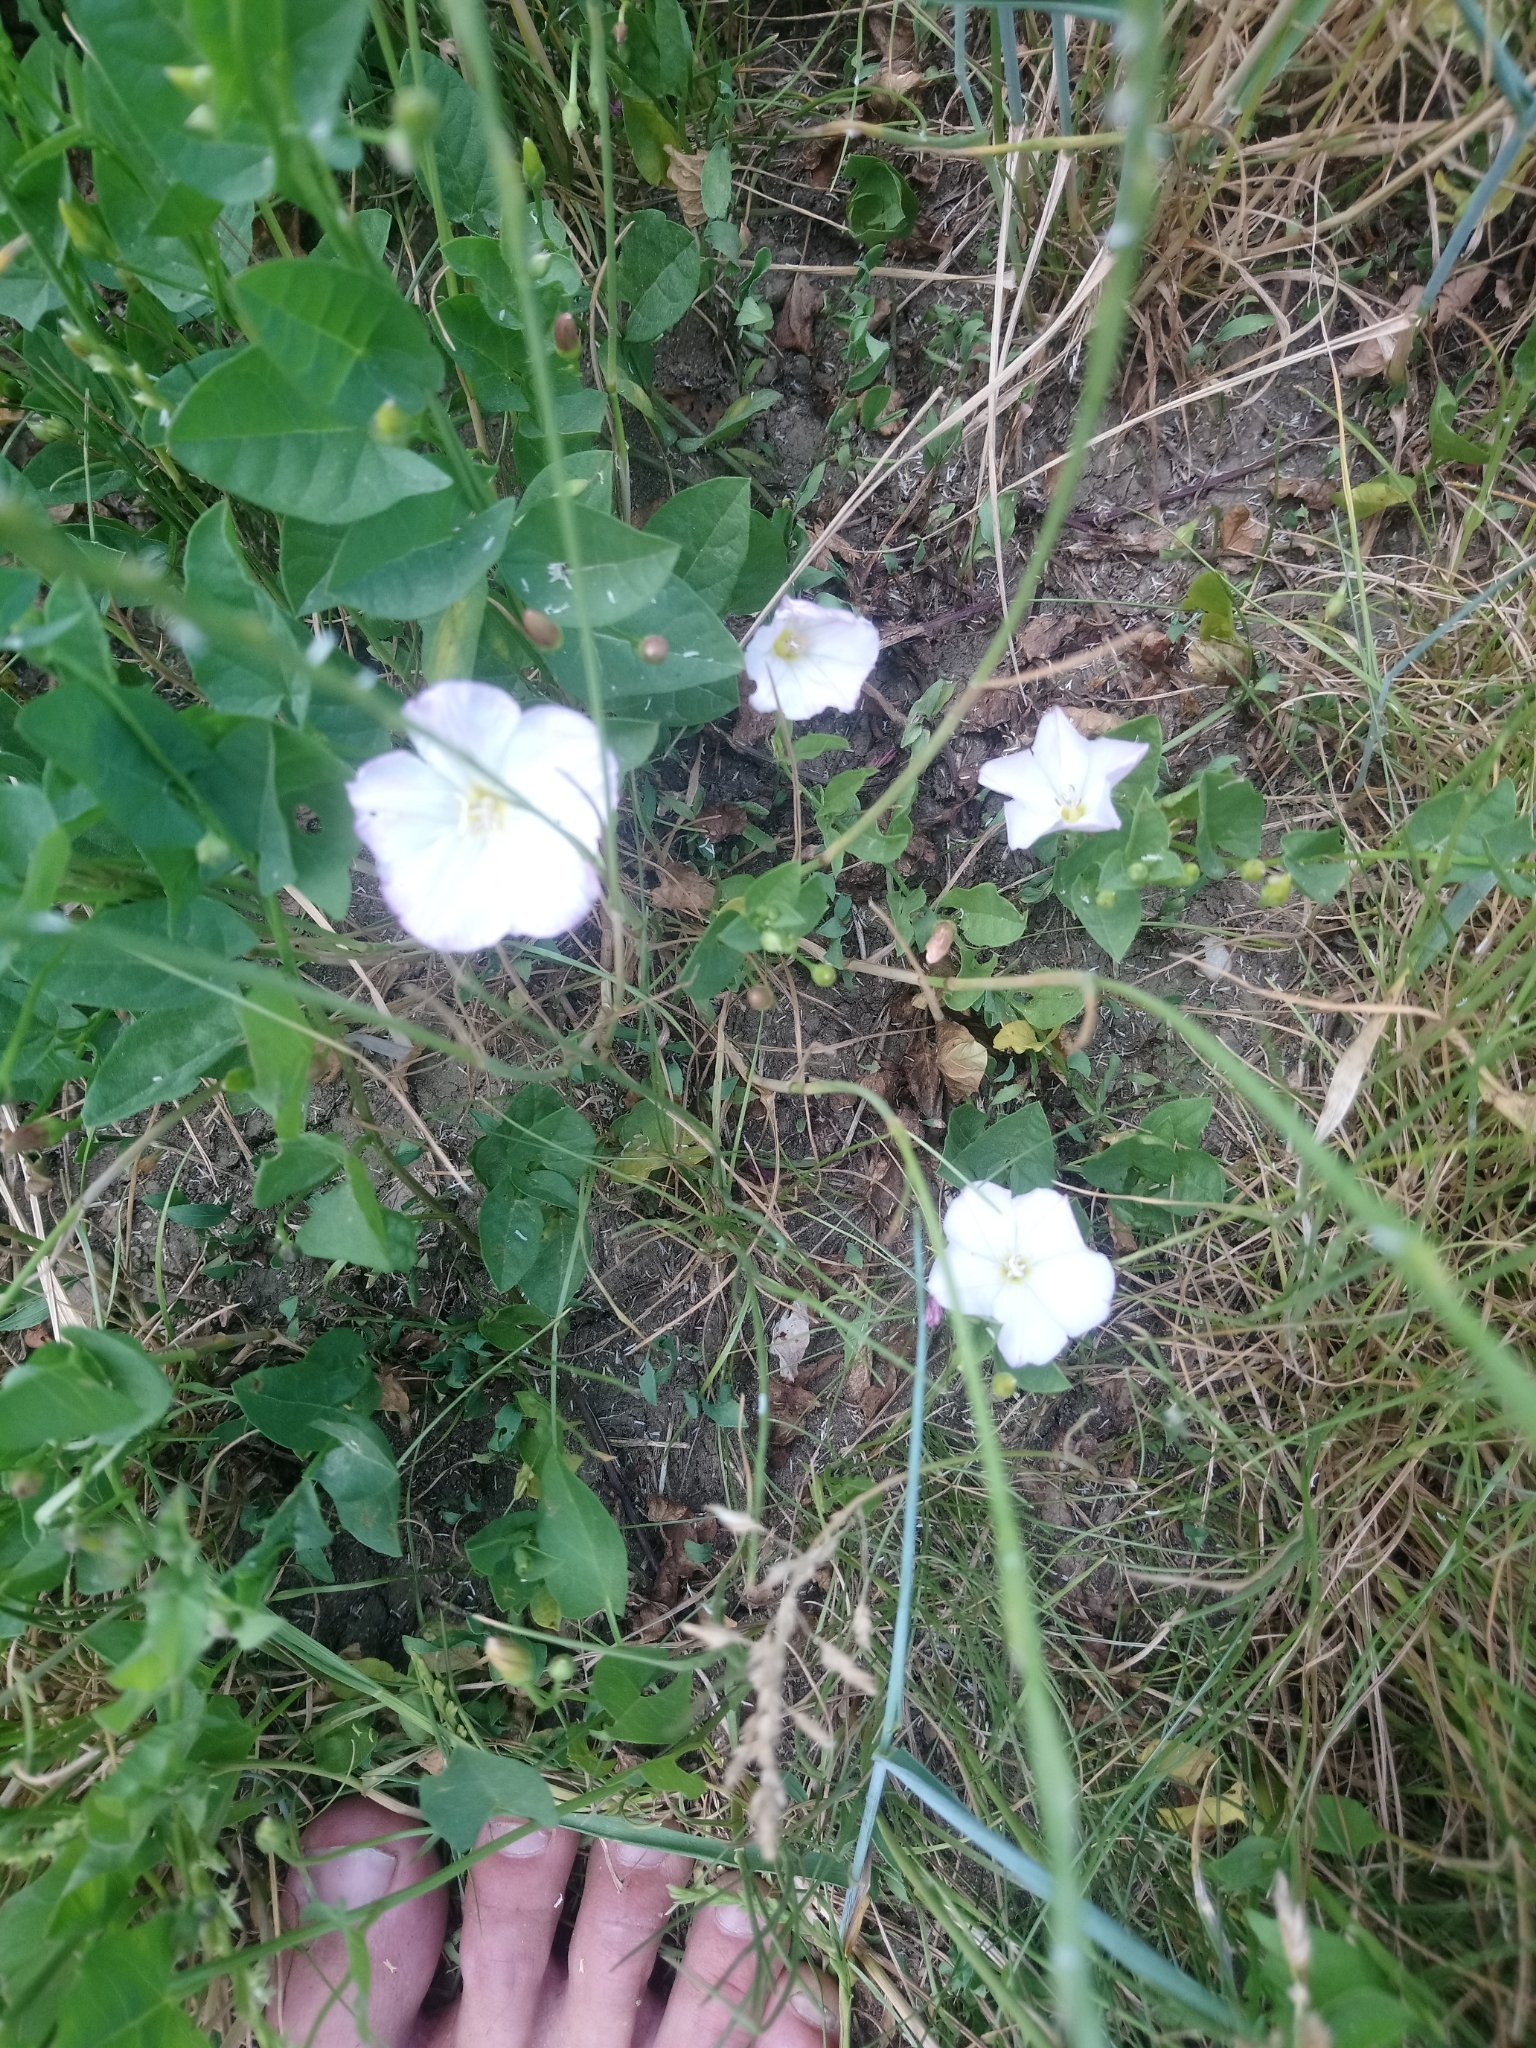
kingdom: Plantae
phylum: Tracheophyta
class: Magnoliopsida
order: Solanales
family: Convolvulaceae
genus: Convolvulus
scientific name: Convolvulus arvensis
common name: Field bindweed
